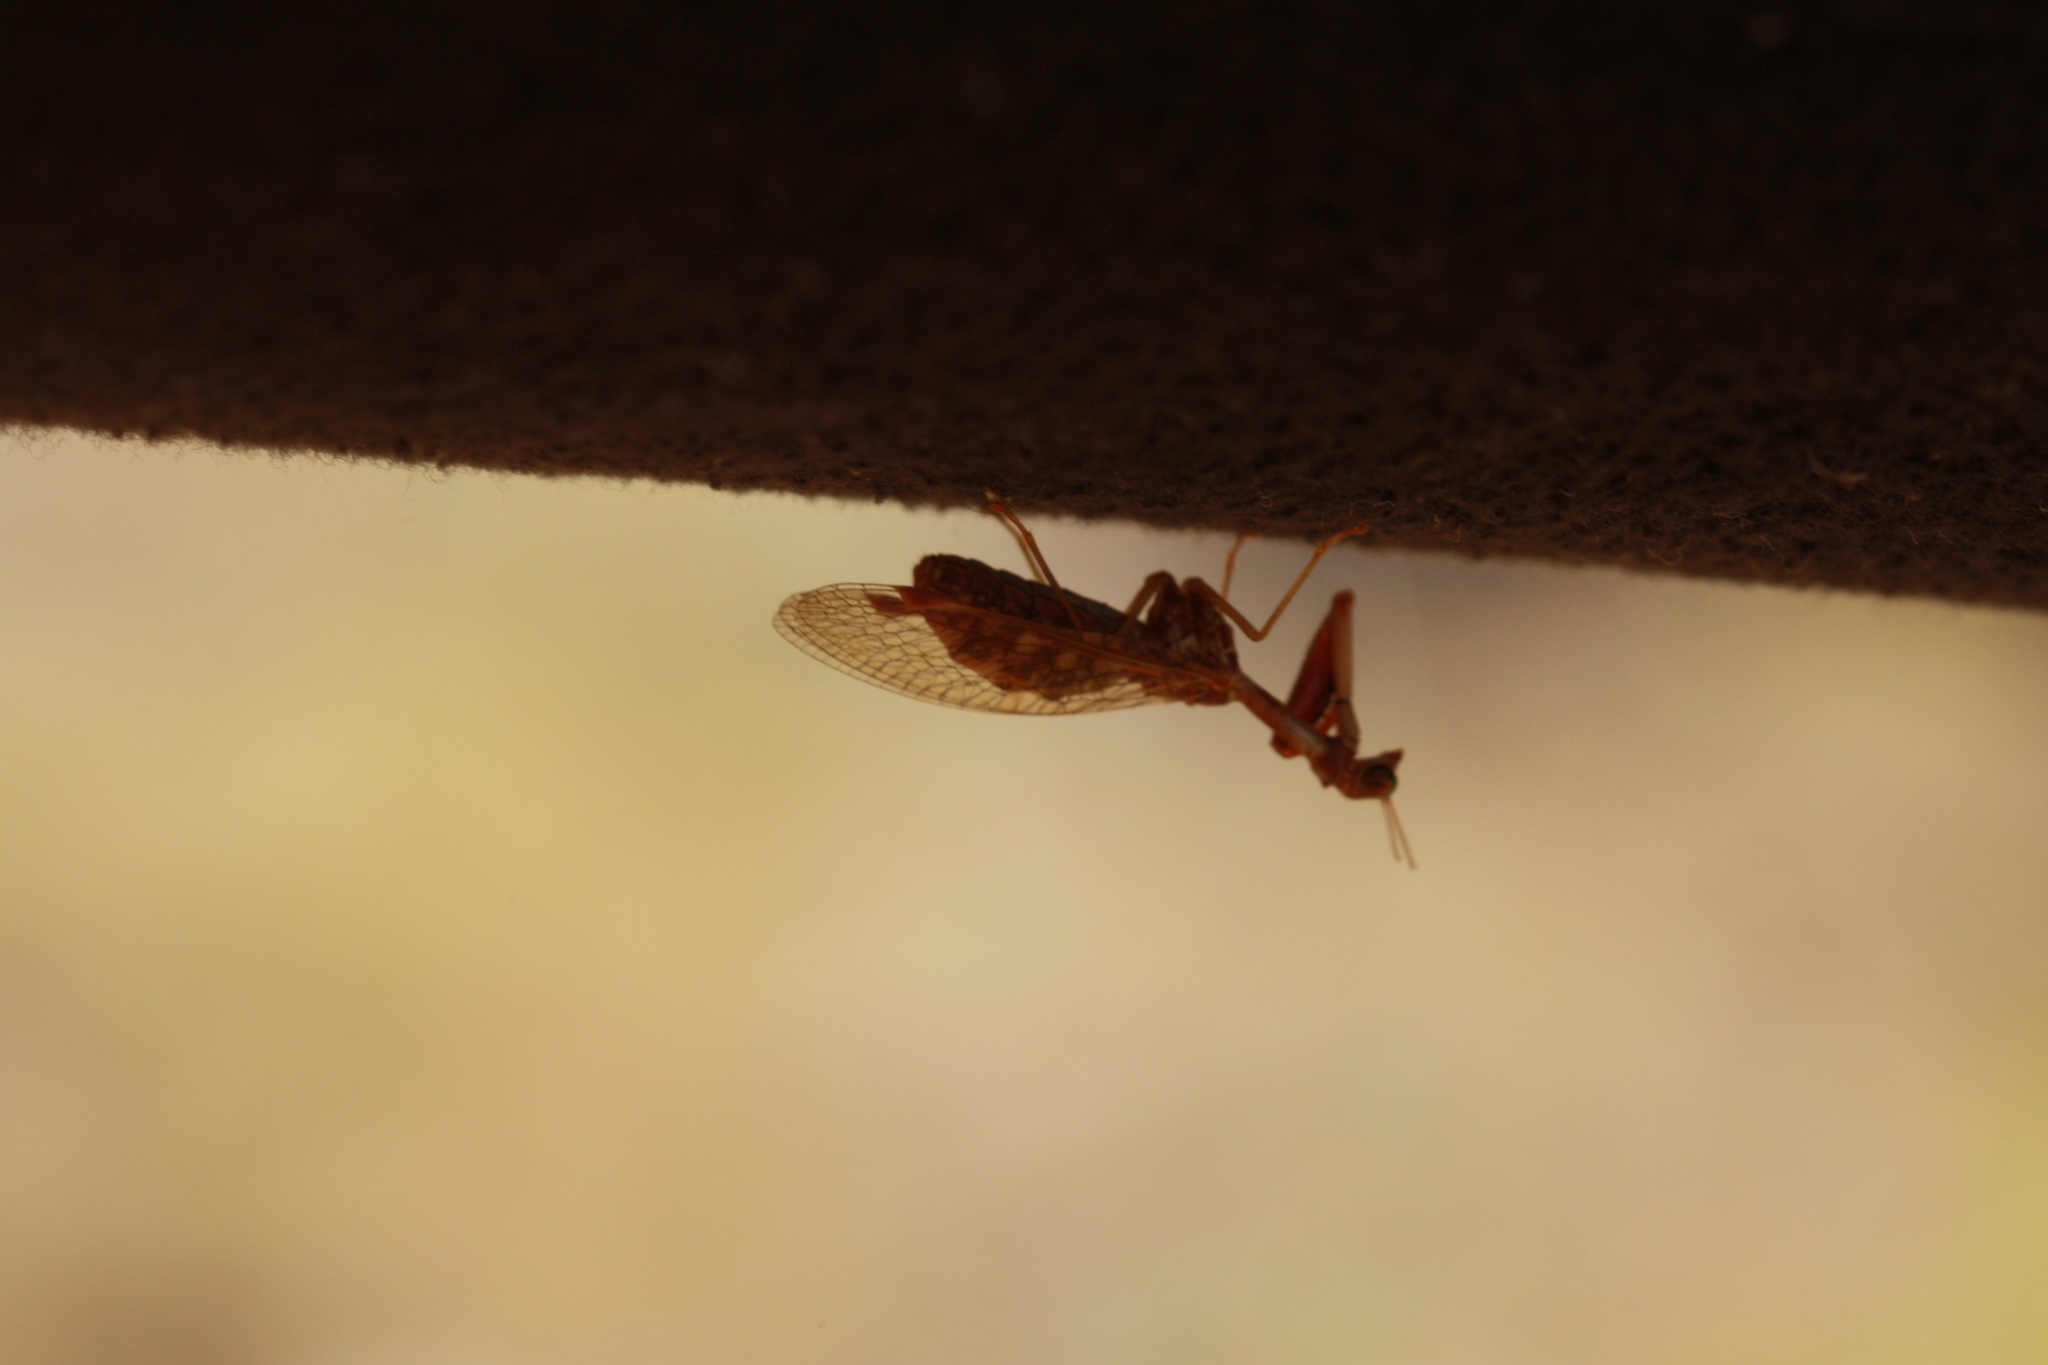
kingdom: Animalia
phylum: Arthropoda
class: Insecta
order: Neuroptera
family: Mantispidae
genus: Mantispa
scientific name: Mantispa styriaca
